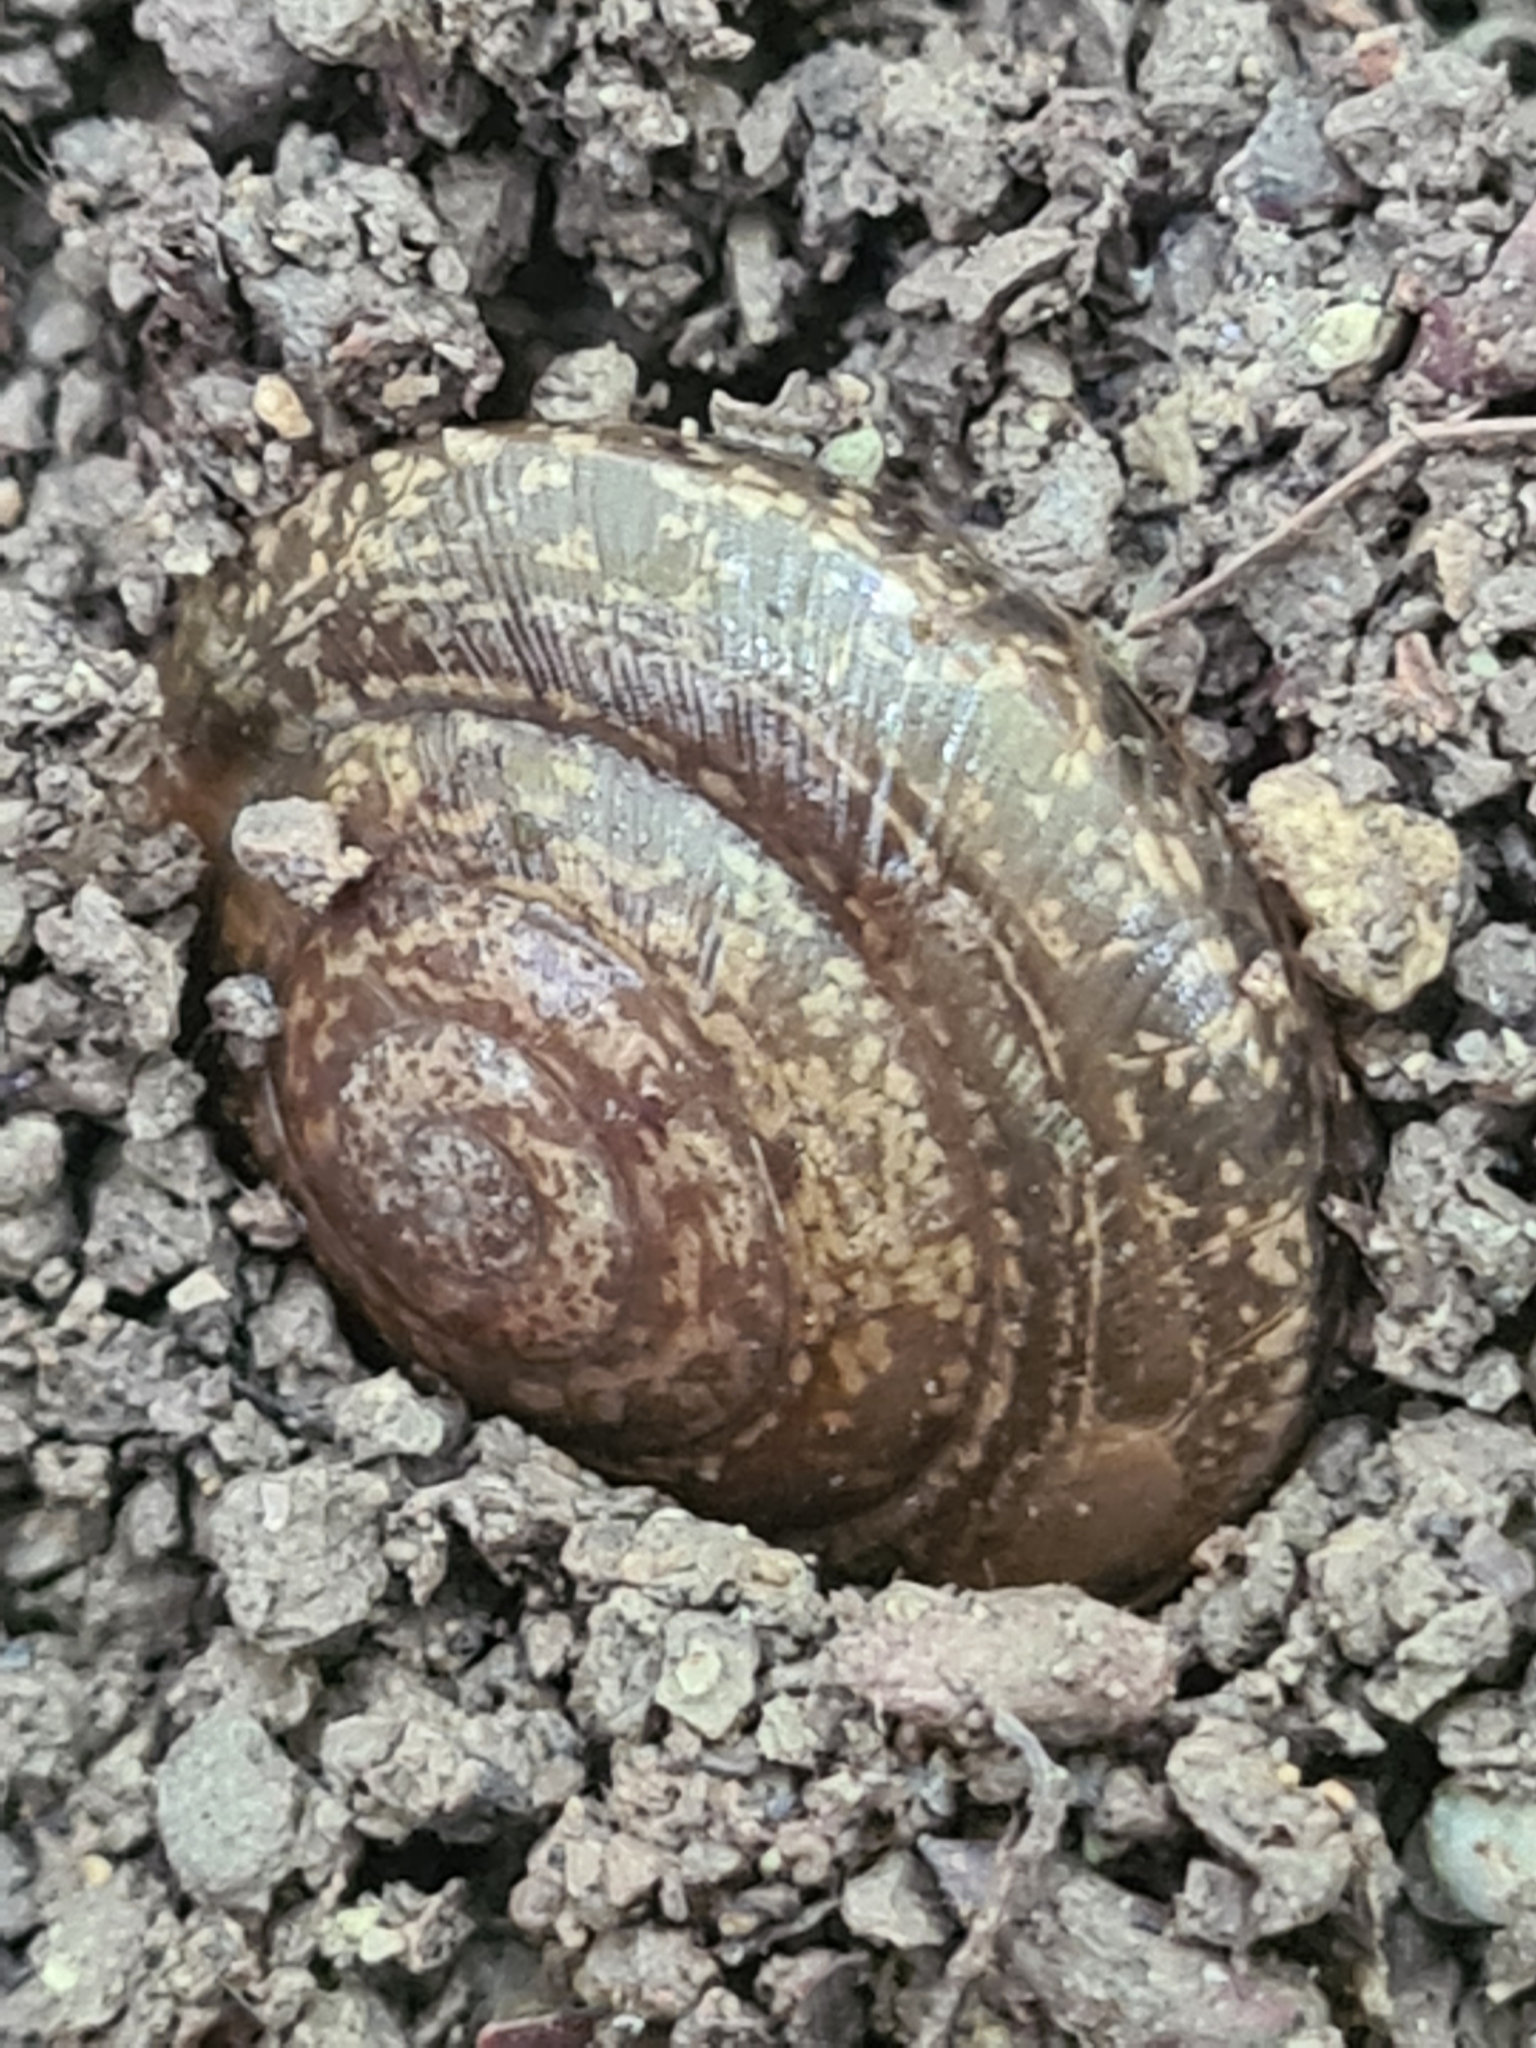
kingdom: Animalia
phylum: Mollusca
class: Gastropoda
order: Stylommatophora
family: Zonitidae
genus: Aegopis
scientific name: Aegopis verticillus
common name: Giant glass snail
